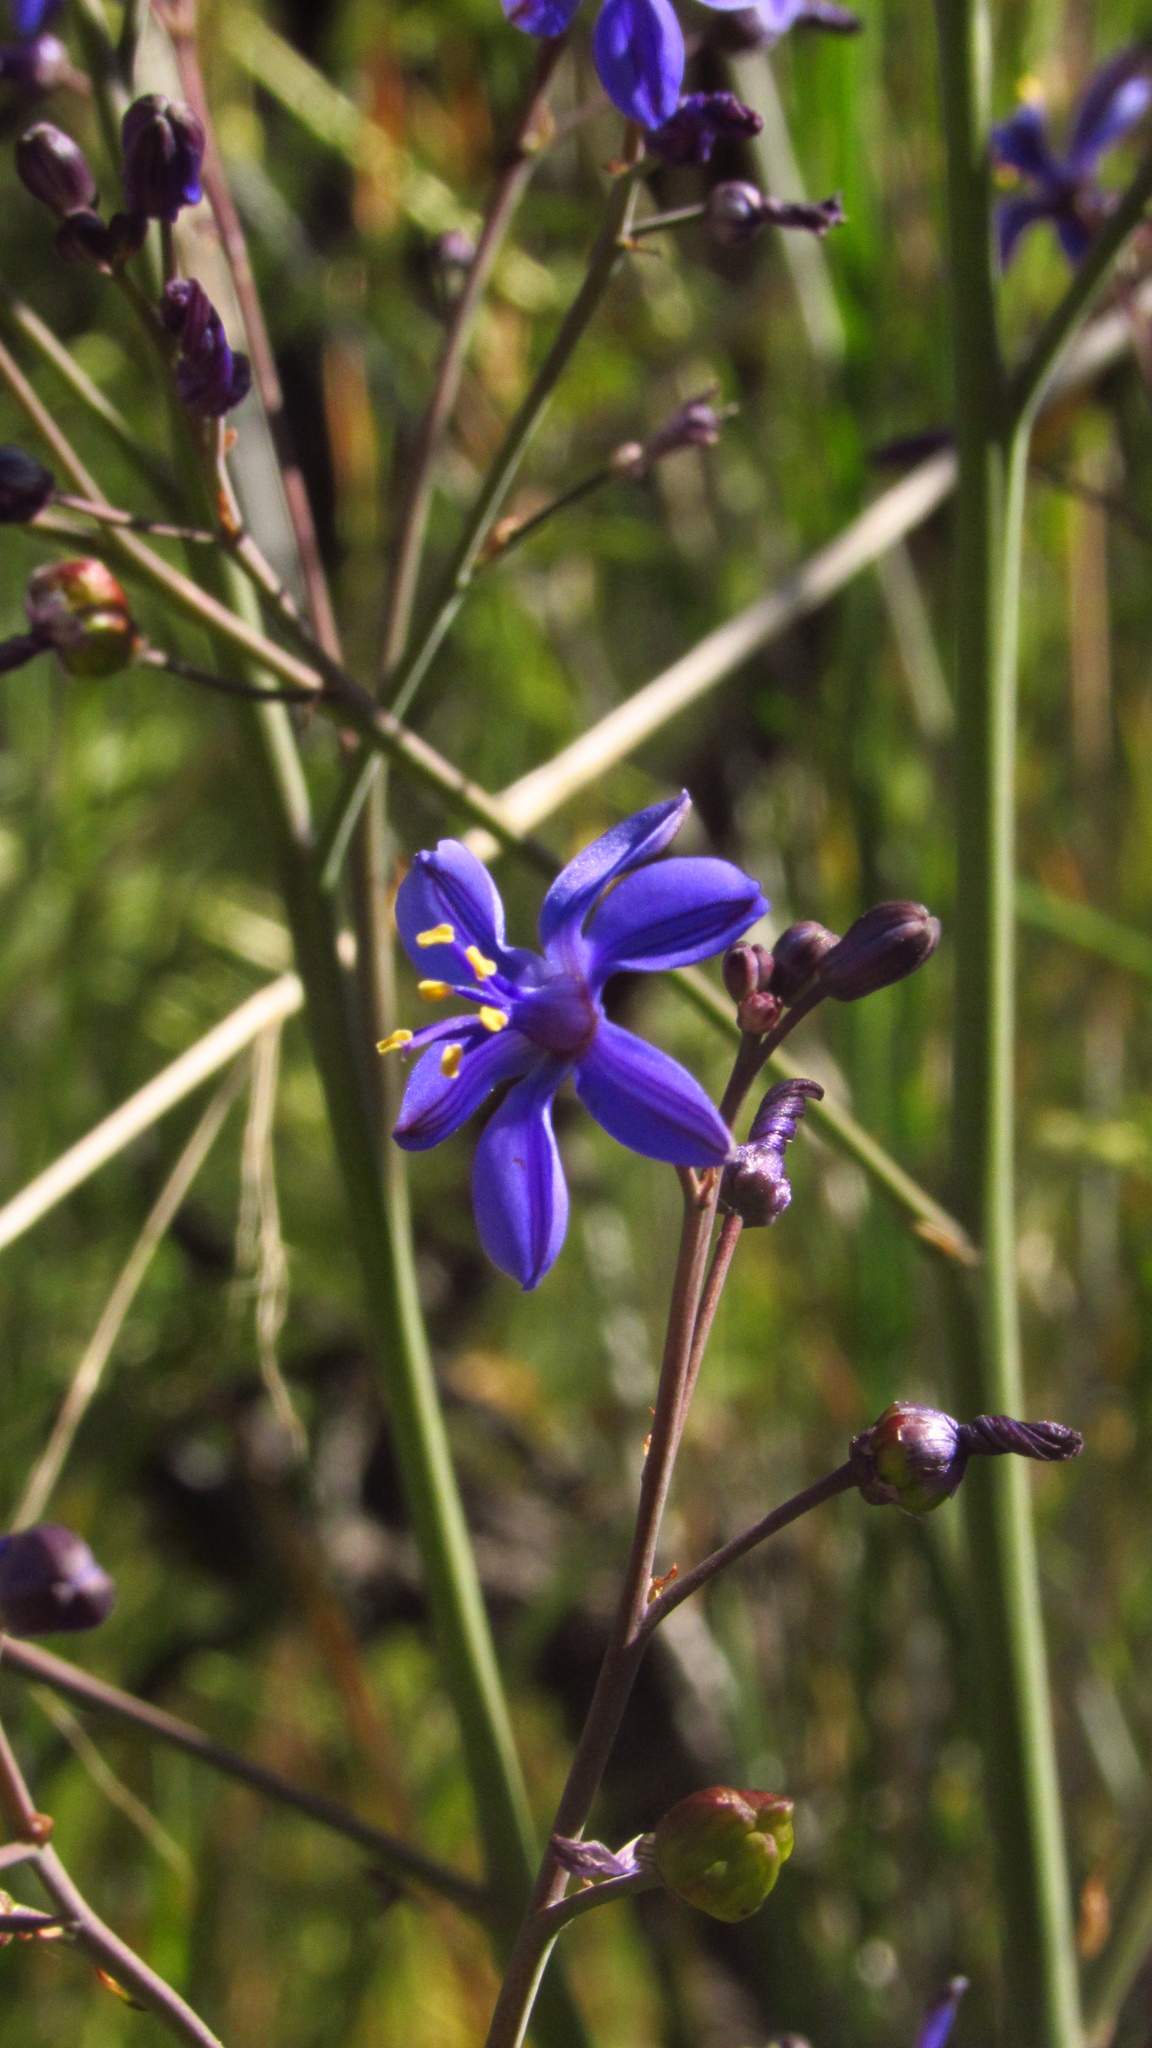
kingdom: Plantae
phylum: Tracheophyta
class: Liliopsida
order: Asparagales
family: Asphodelaceae
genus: Pasithea
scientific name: Pasithea caerulea
